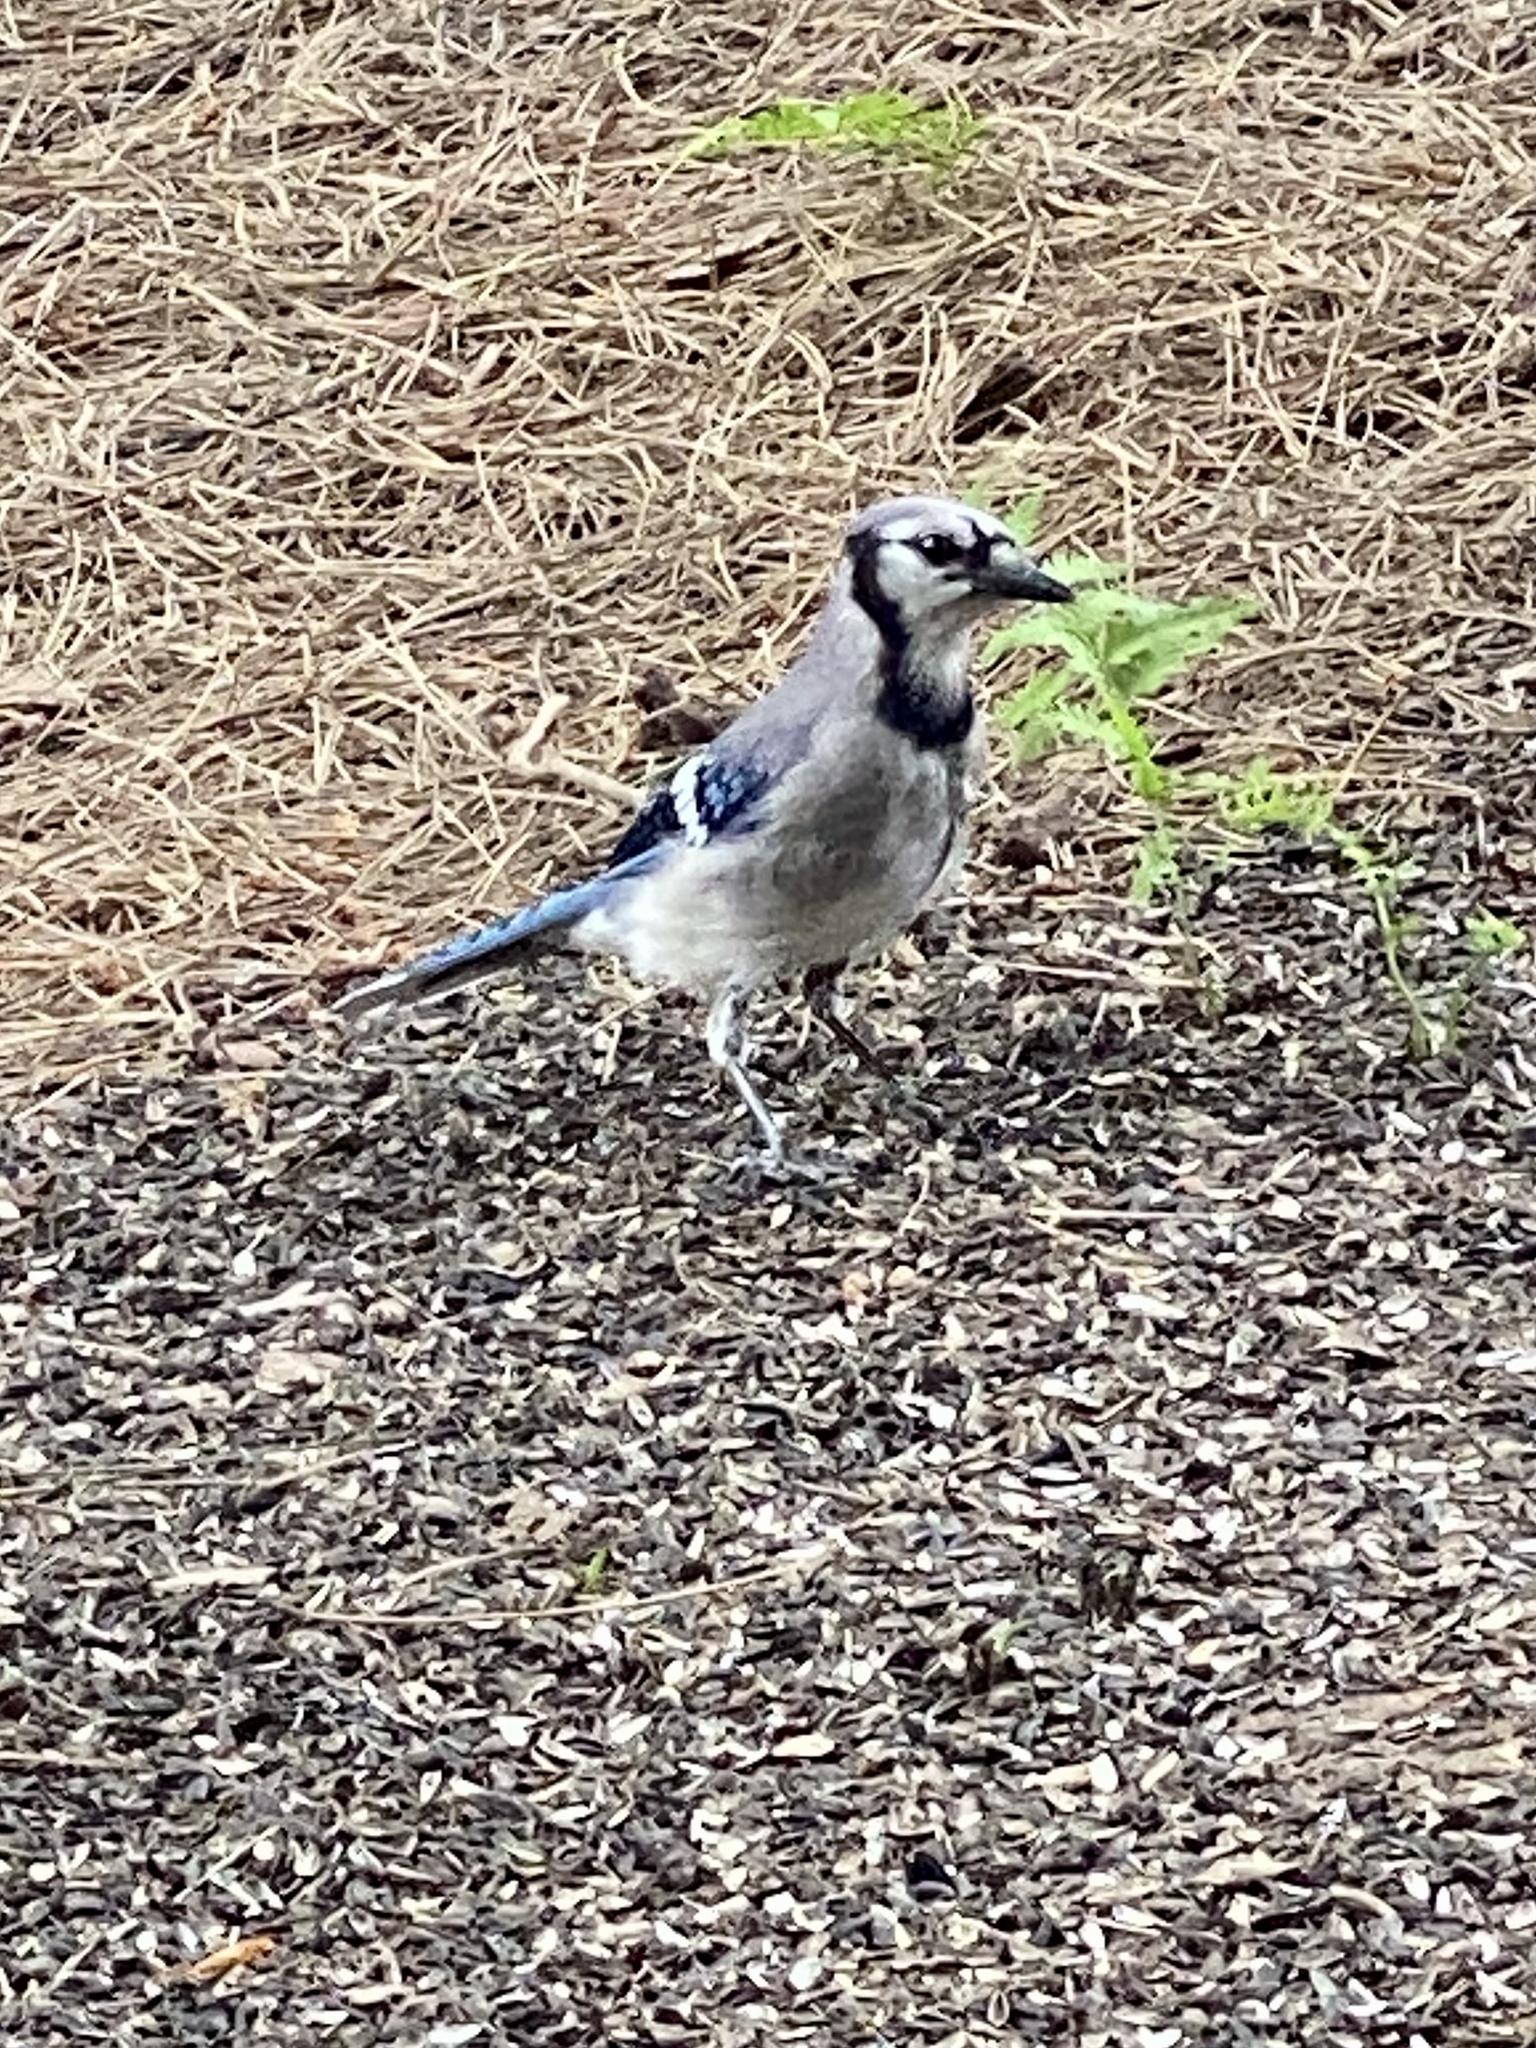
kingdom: Animalia
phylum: Chordata
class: Aves
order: Passeriformes
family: Corvidae
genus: Cyanocitta
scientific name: Cyanocitta cristata
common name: Blue jay
